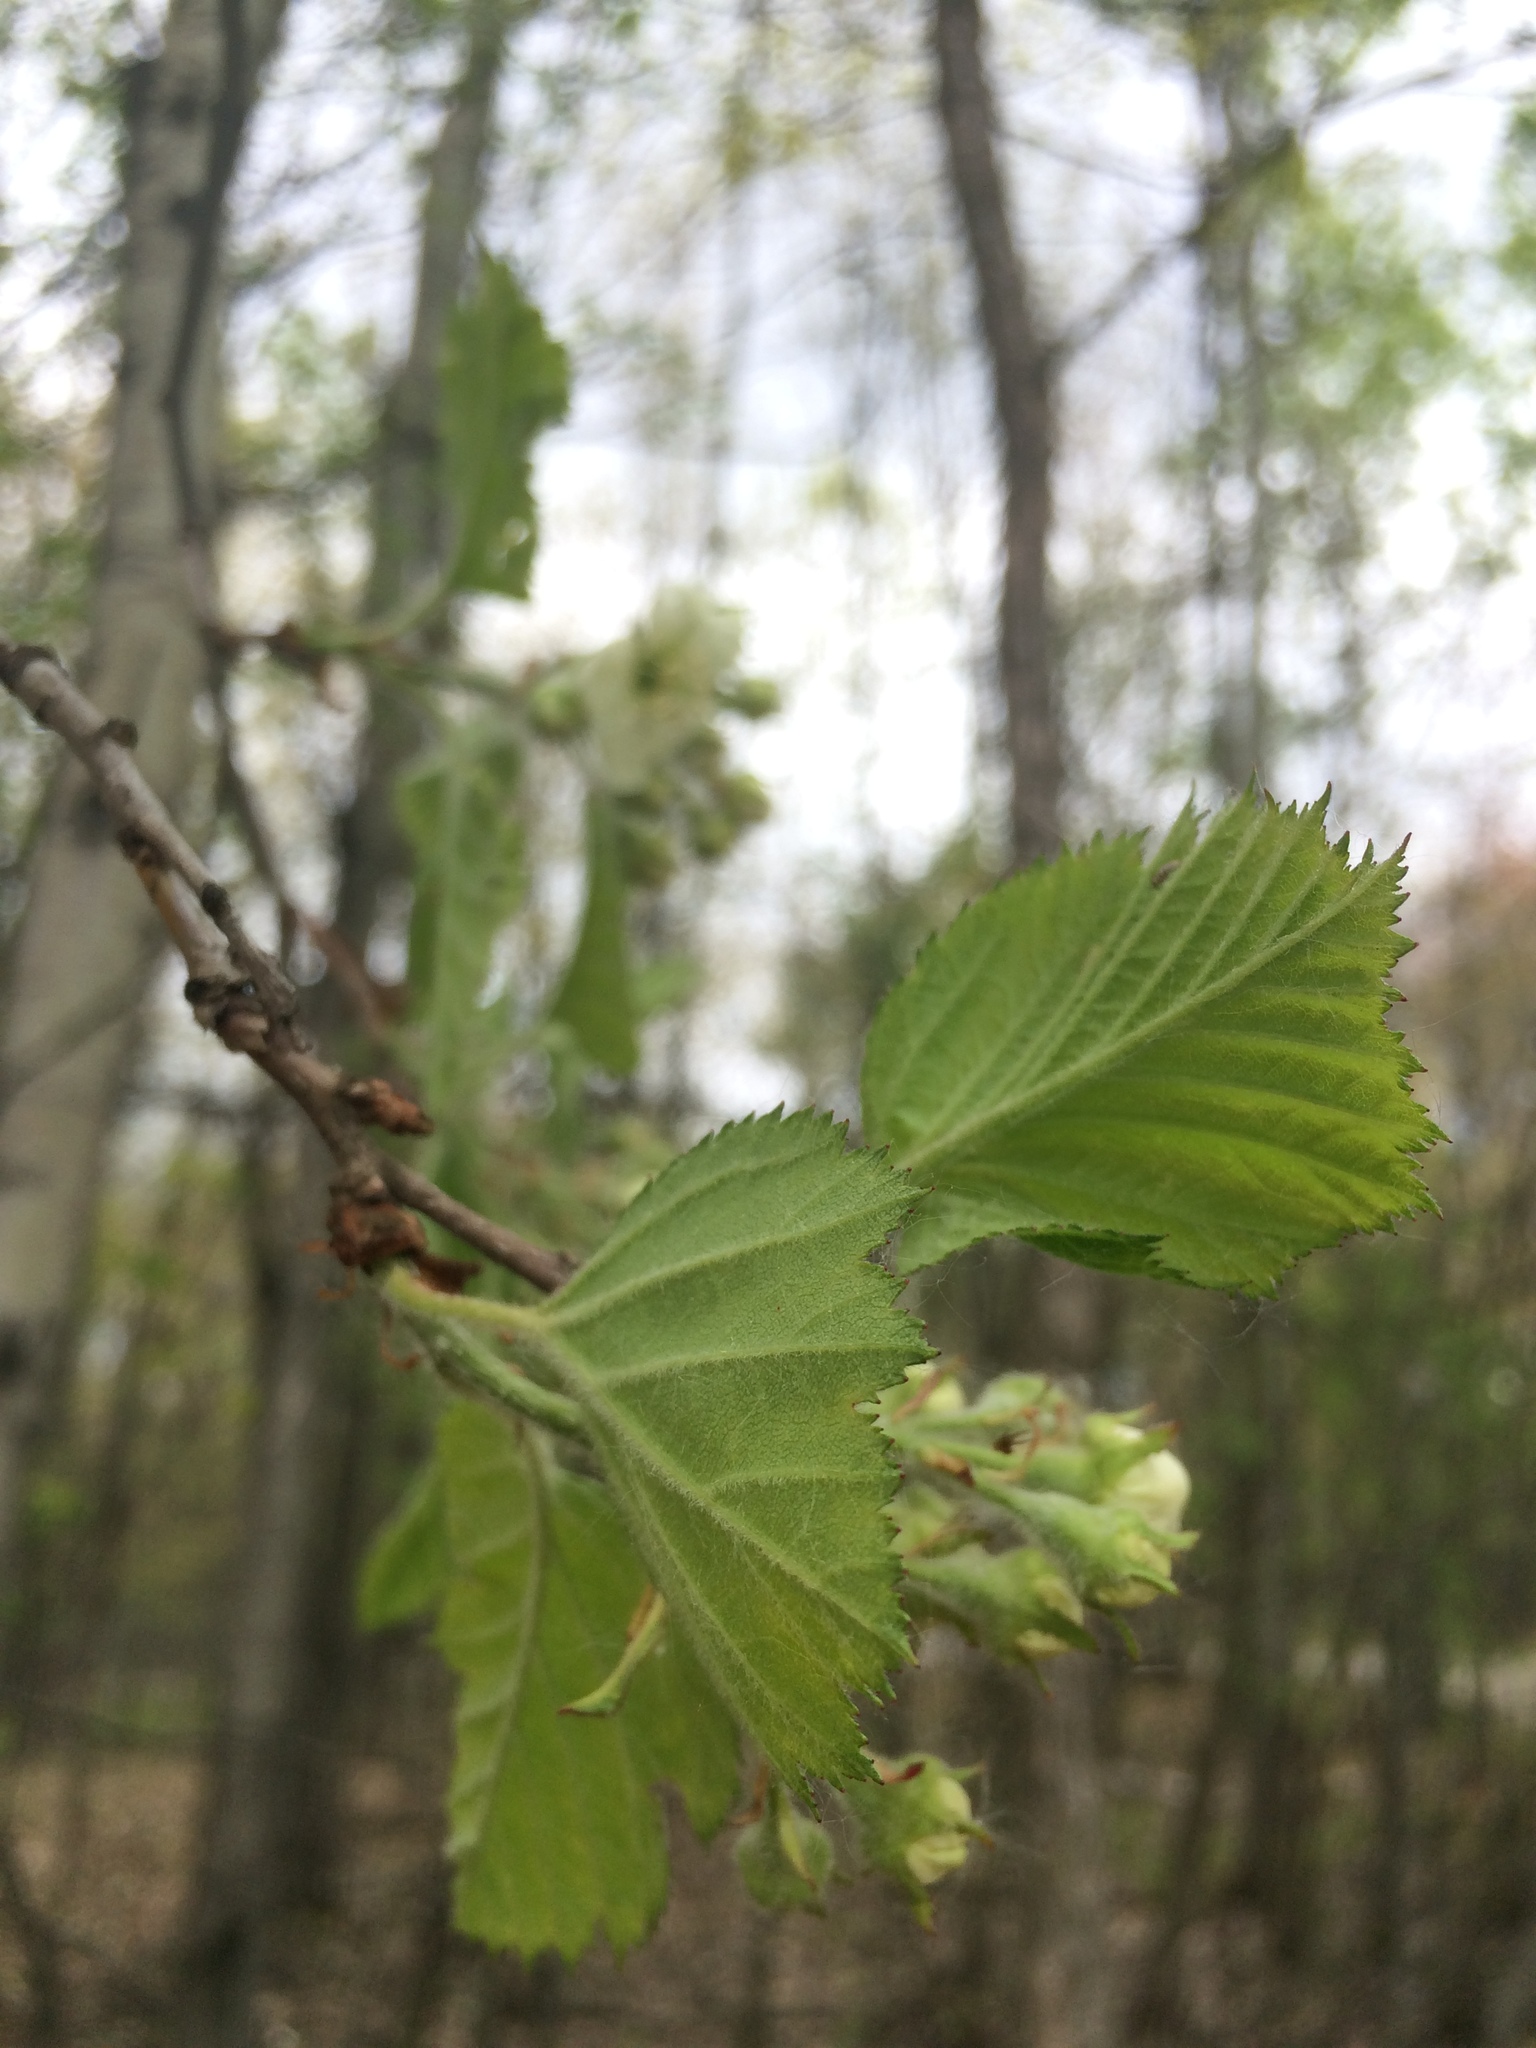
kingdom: Plantae
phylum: Tracheophyta
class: Magnoliopsida
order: Rosales
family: Rosaceae
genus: Crataegus
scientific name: Crataegus submollis
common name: Hairy cockspurthorn
